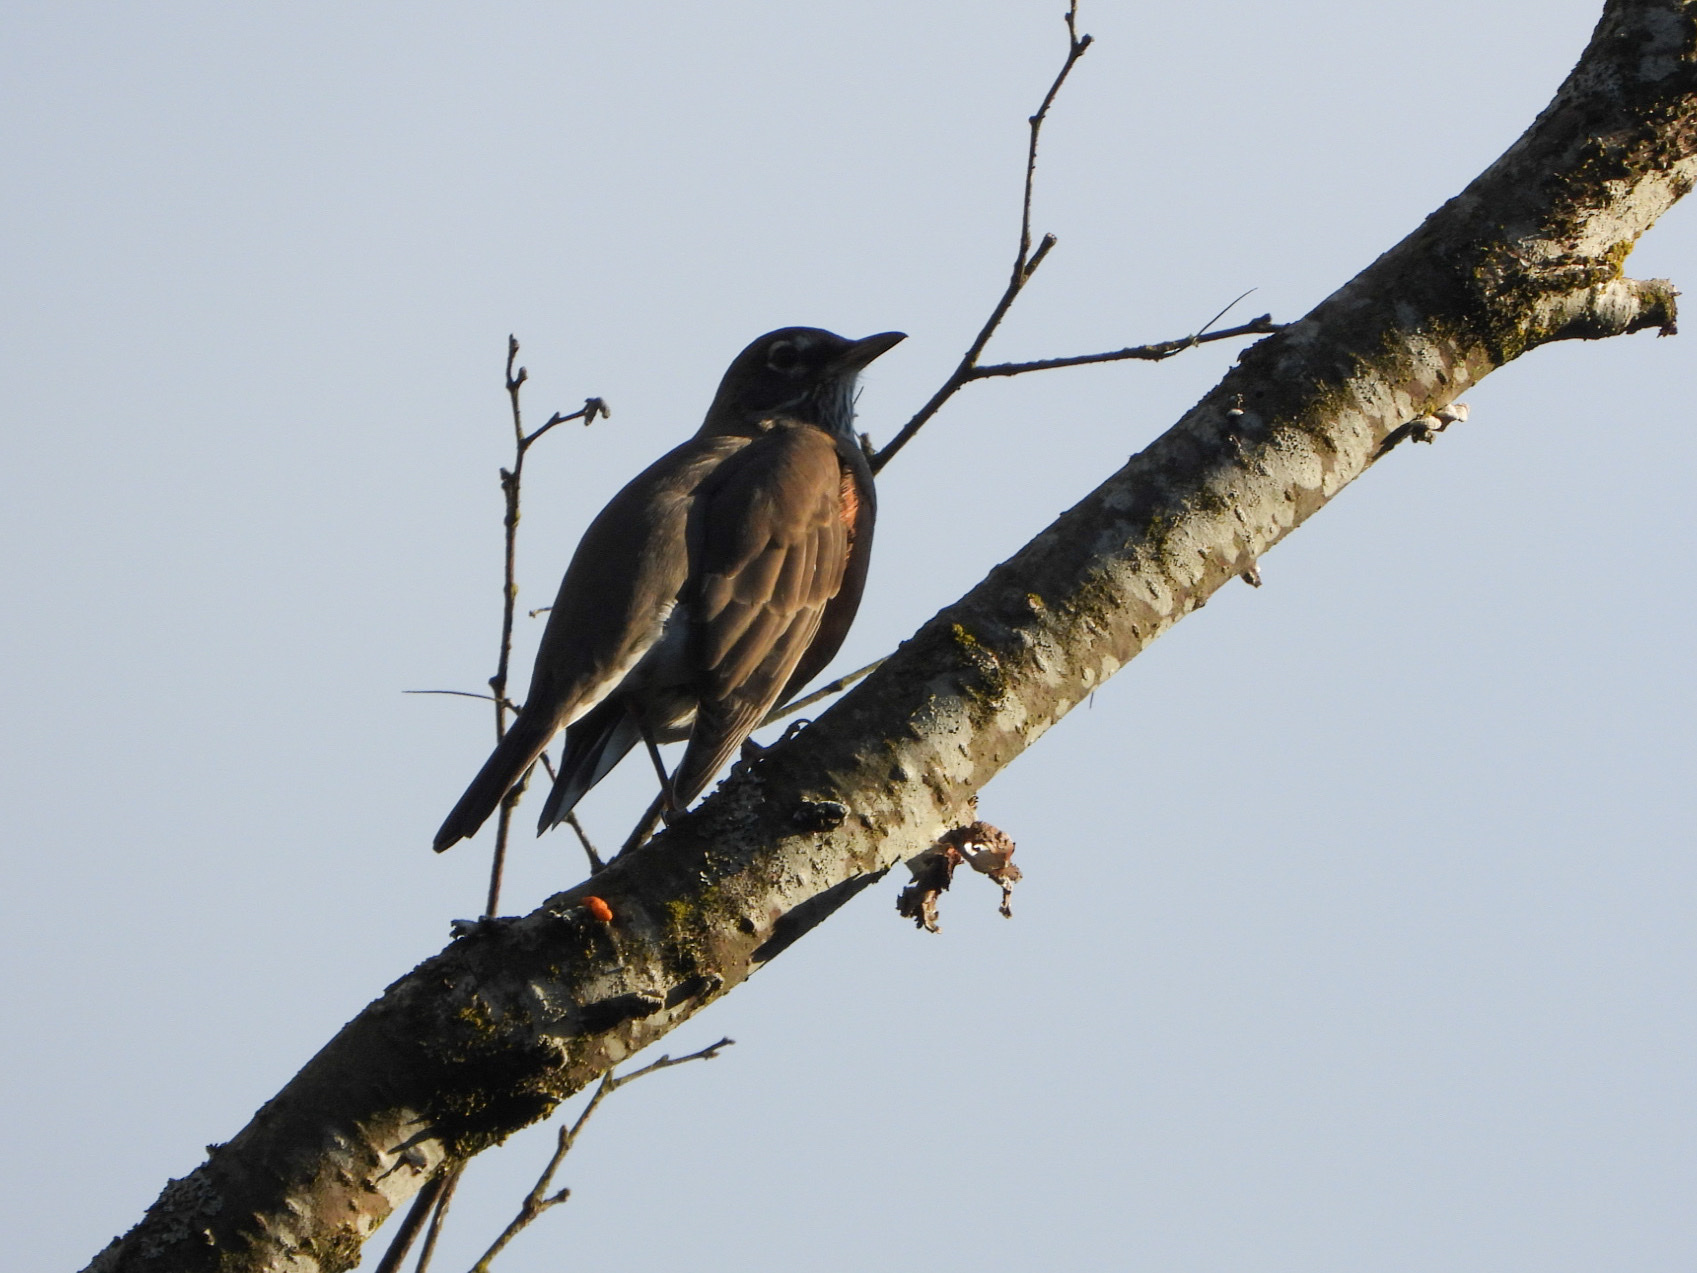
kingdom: Animalia
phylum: Chordata
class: Aves
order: Passeriformes
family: Turdidae
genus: Turdus
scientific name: Turdus migratorius
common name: American robin
